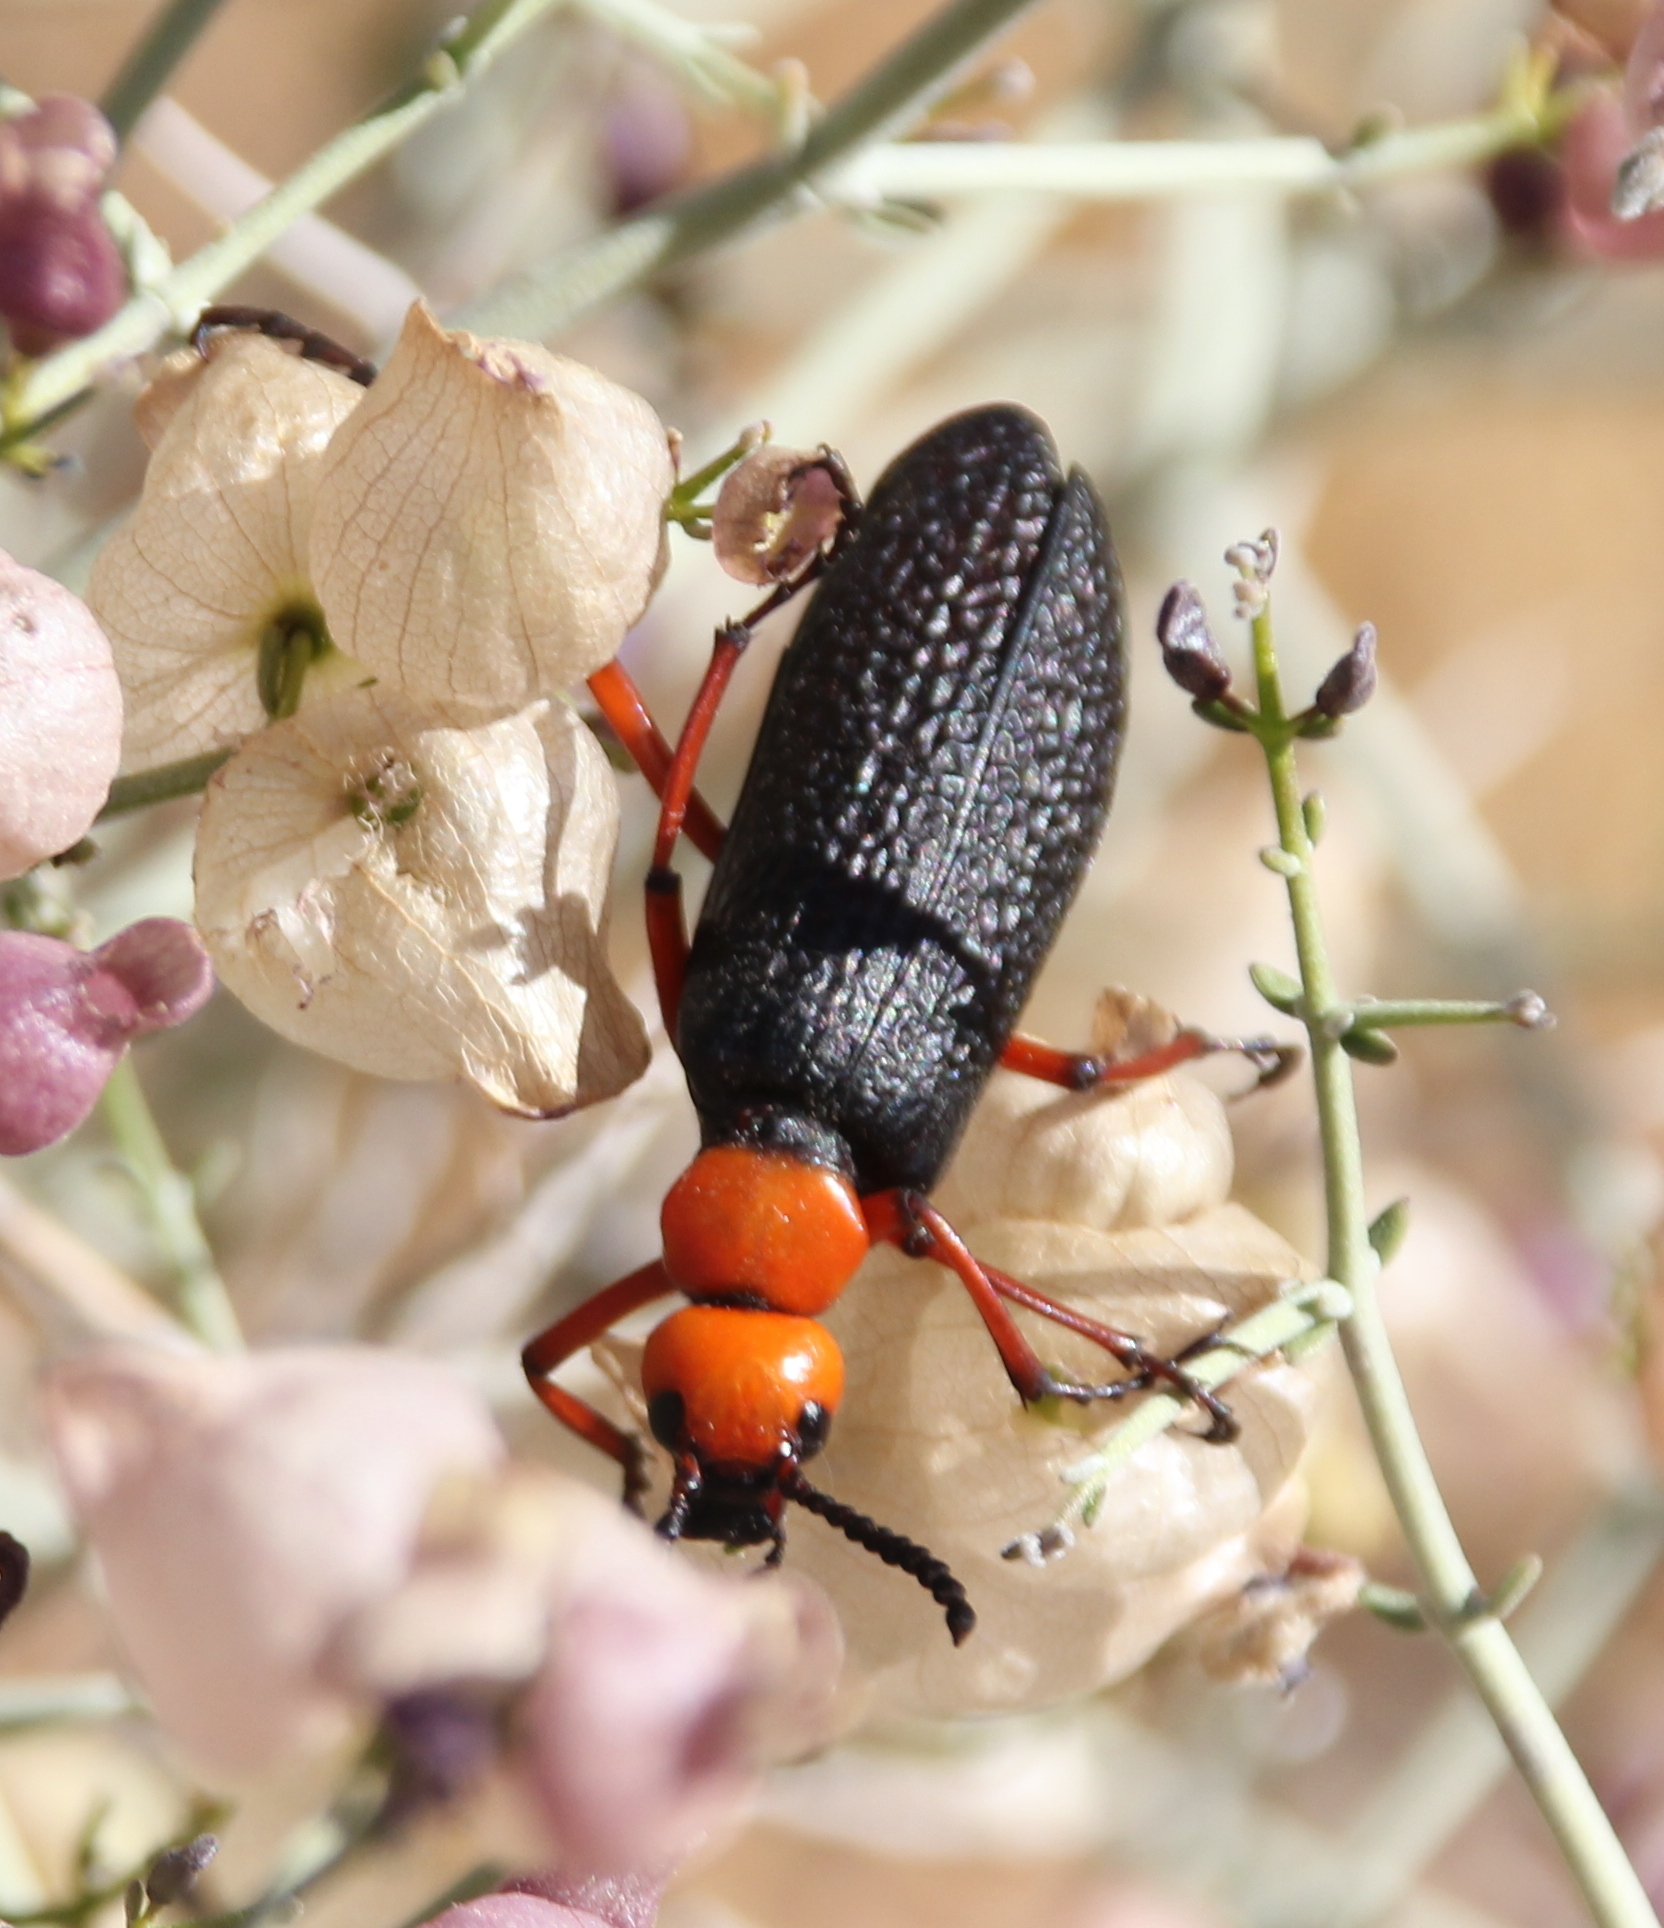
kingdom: Animalia
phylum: Arthropoda
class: Insecta
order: Coleoptera
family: Meloidae
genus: Lytta
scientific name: Lytta magister
